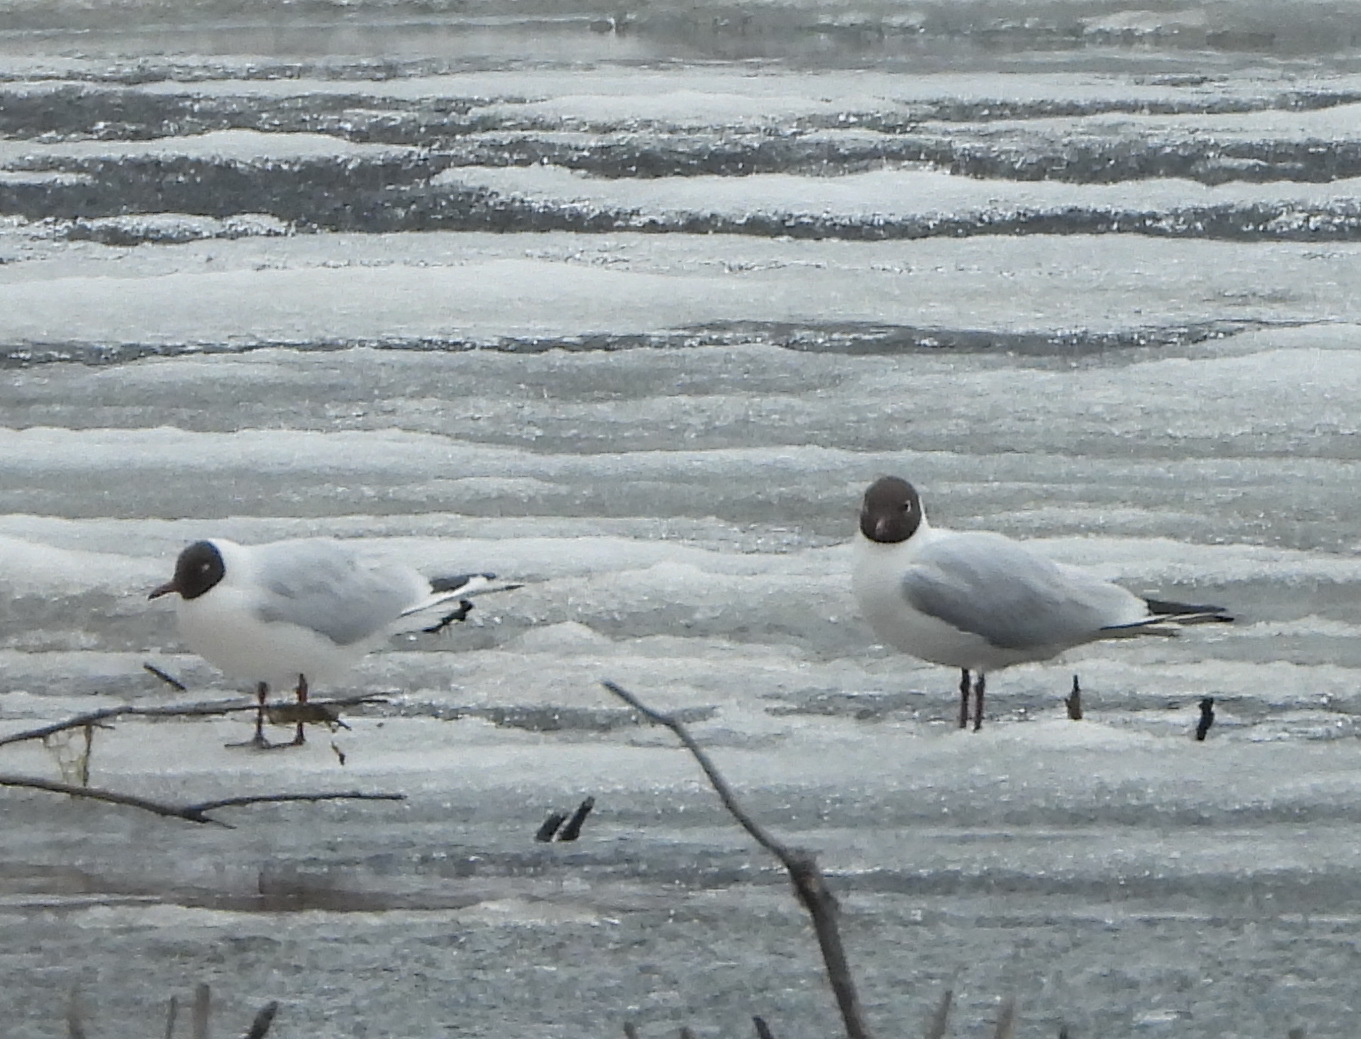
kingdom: Animalia
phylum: Chordata
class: Aves
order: Charadriiformes
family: Laridae
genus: Chroicocephalus
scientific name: Chroicocephalus ridibundus
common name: Black-headed gull
